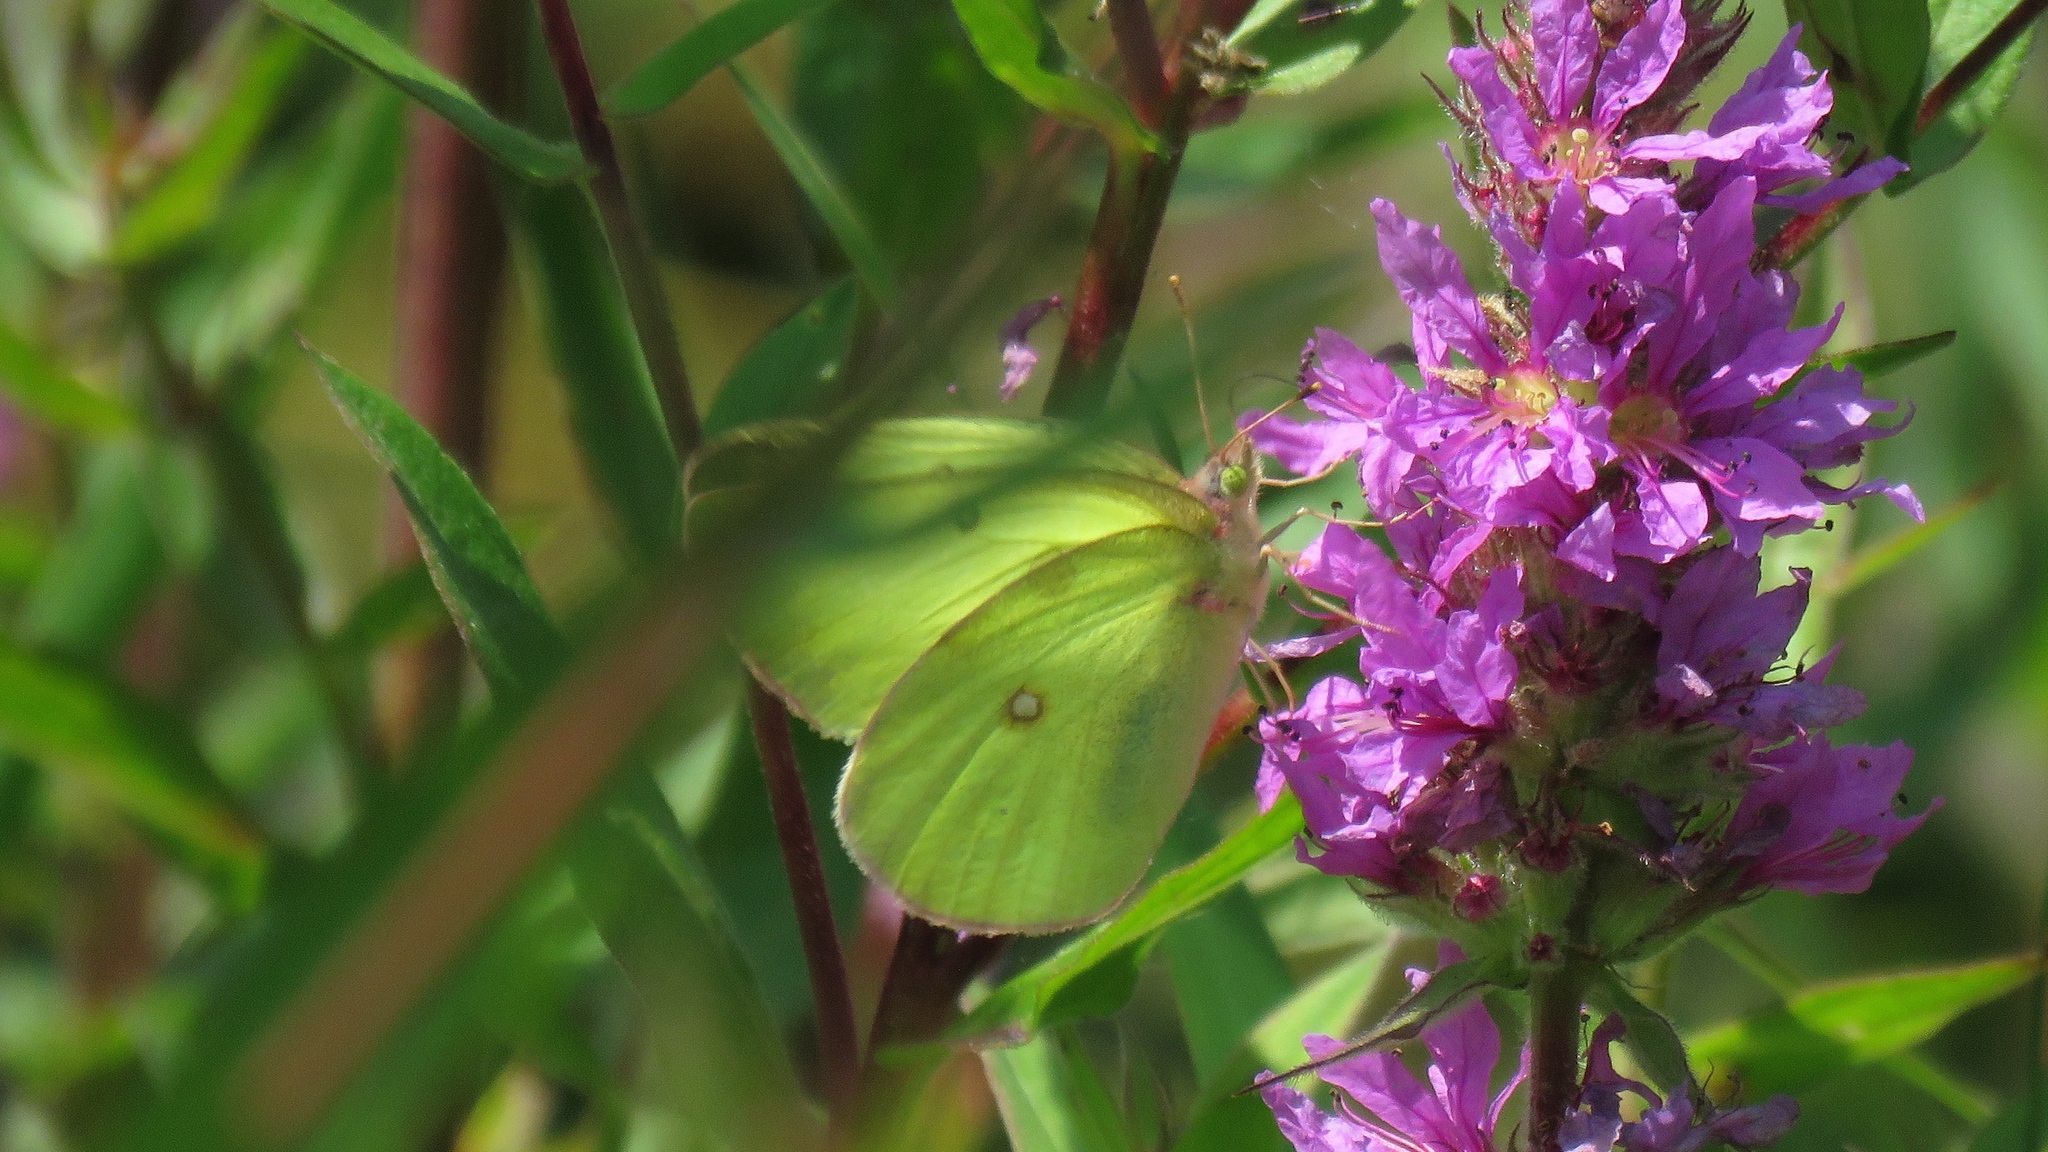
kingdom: Animalia
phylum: Arthropoda
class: Insecta
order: Lepidoptera
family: Pieridae
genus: Colias
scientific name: Colias interior
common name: Pink-edged sulphur
